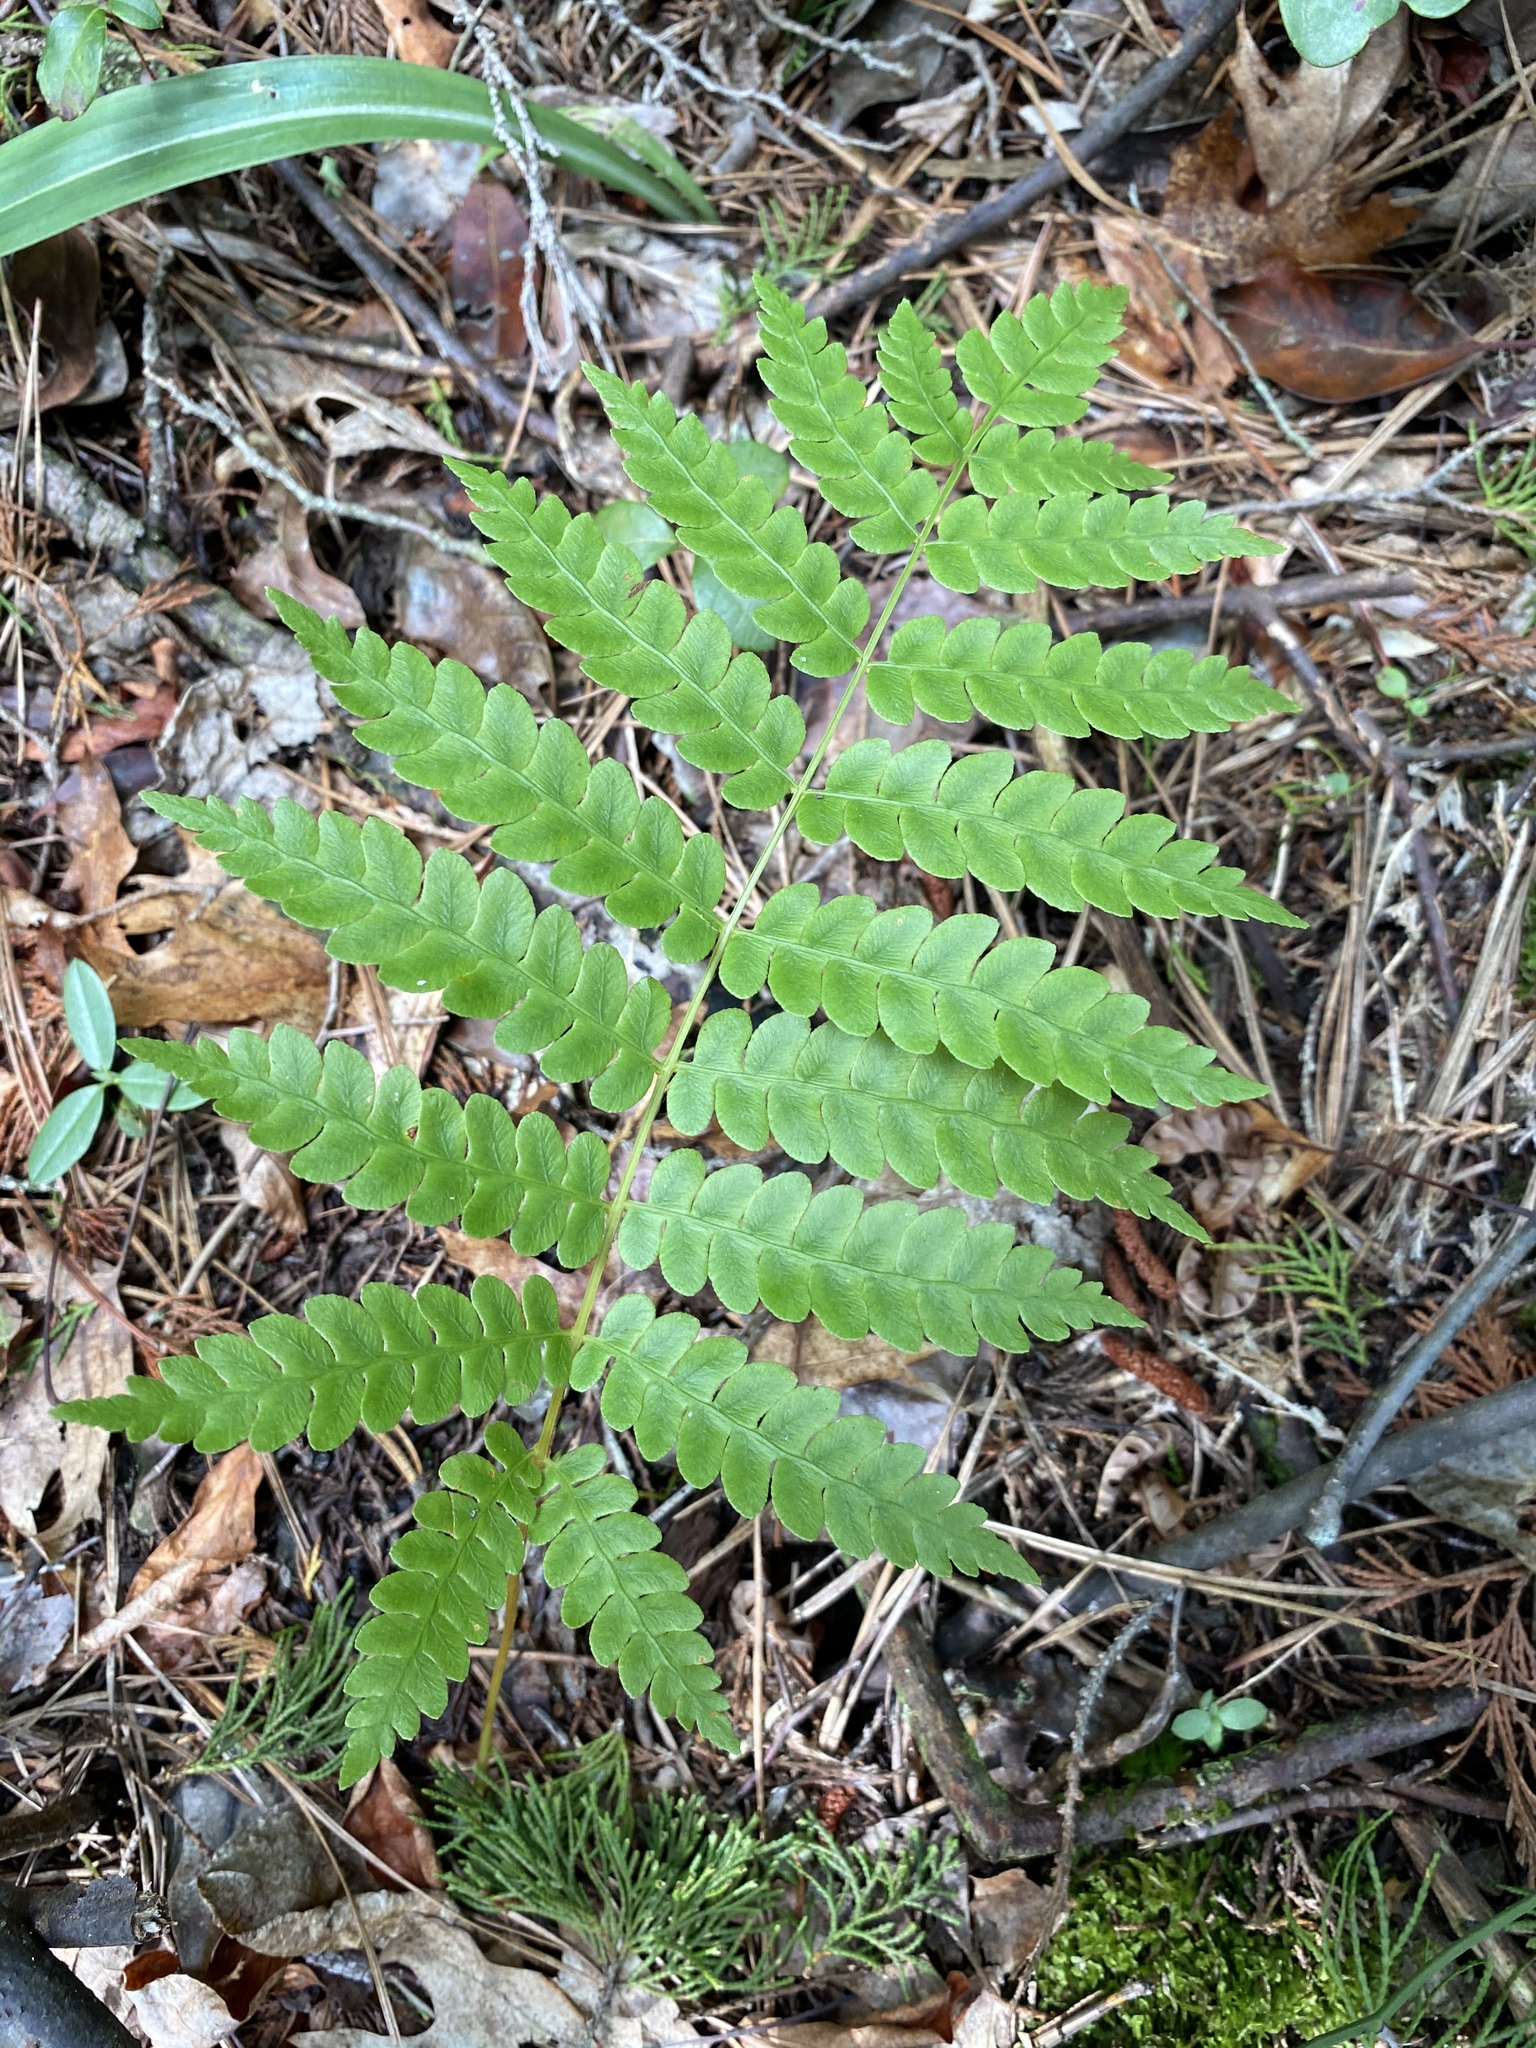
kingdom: Plantae
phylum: Tracheophyta
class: Polypodiopsida
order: Osmundales
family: Osmundaceae
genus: Osmundastrum
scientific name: Osmundastrum cinnamomeum
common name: Cinnamon fern
